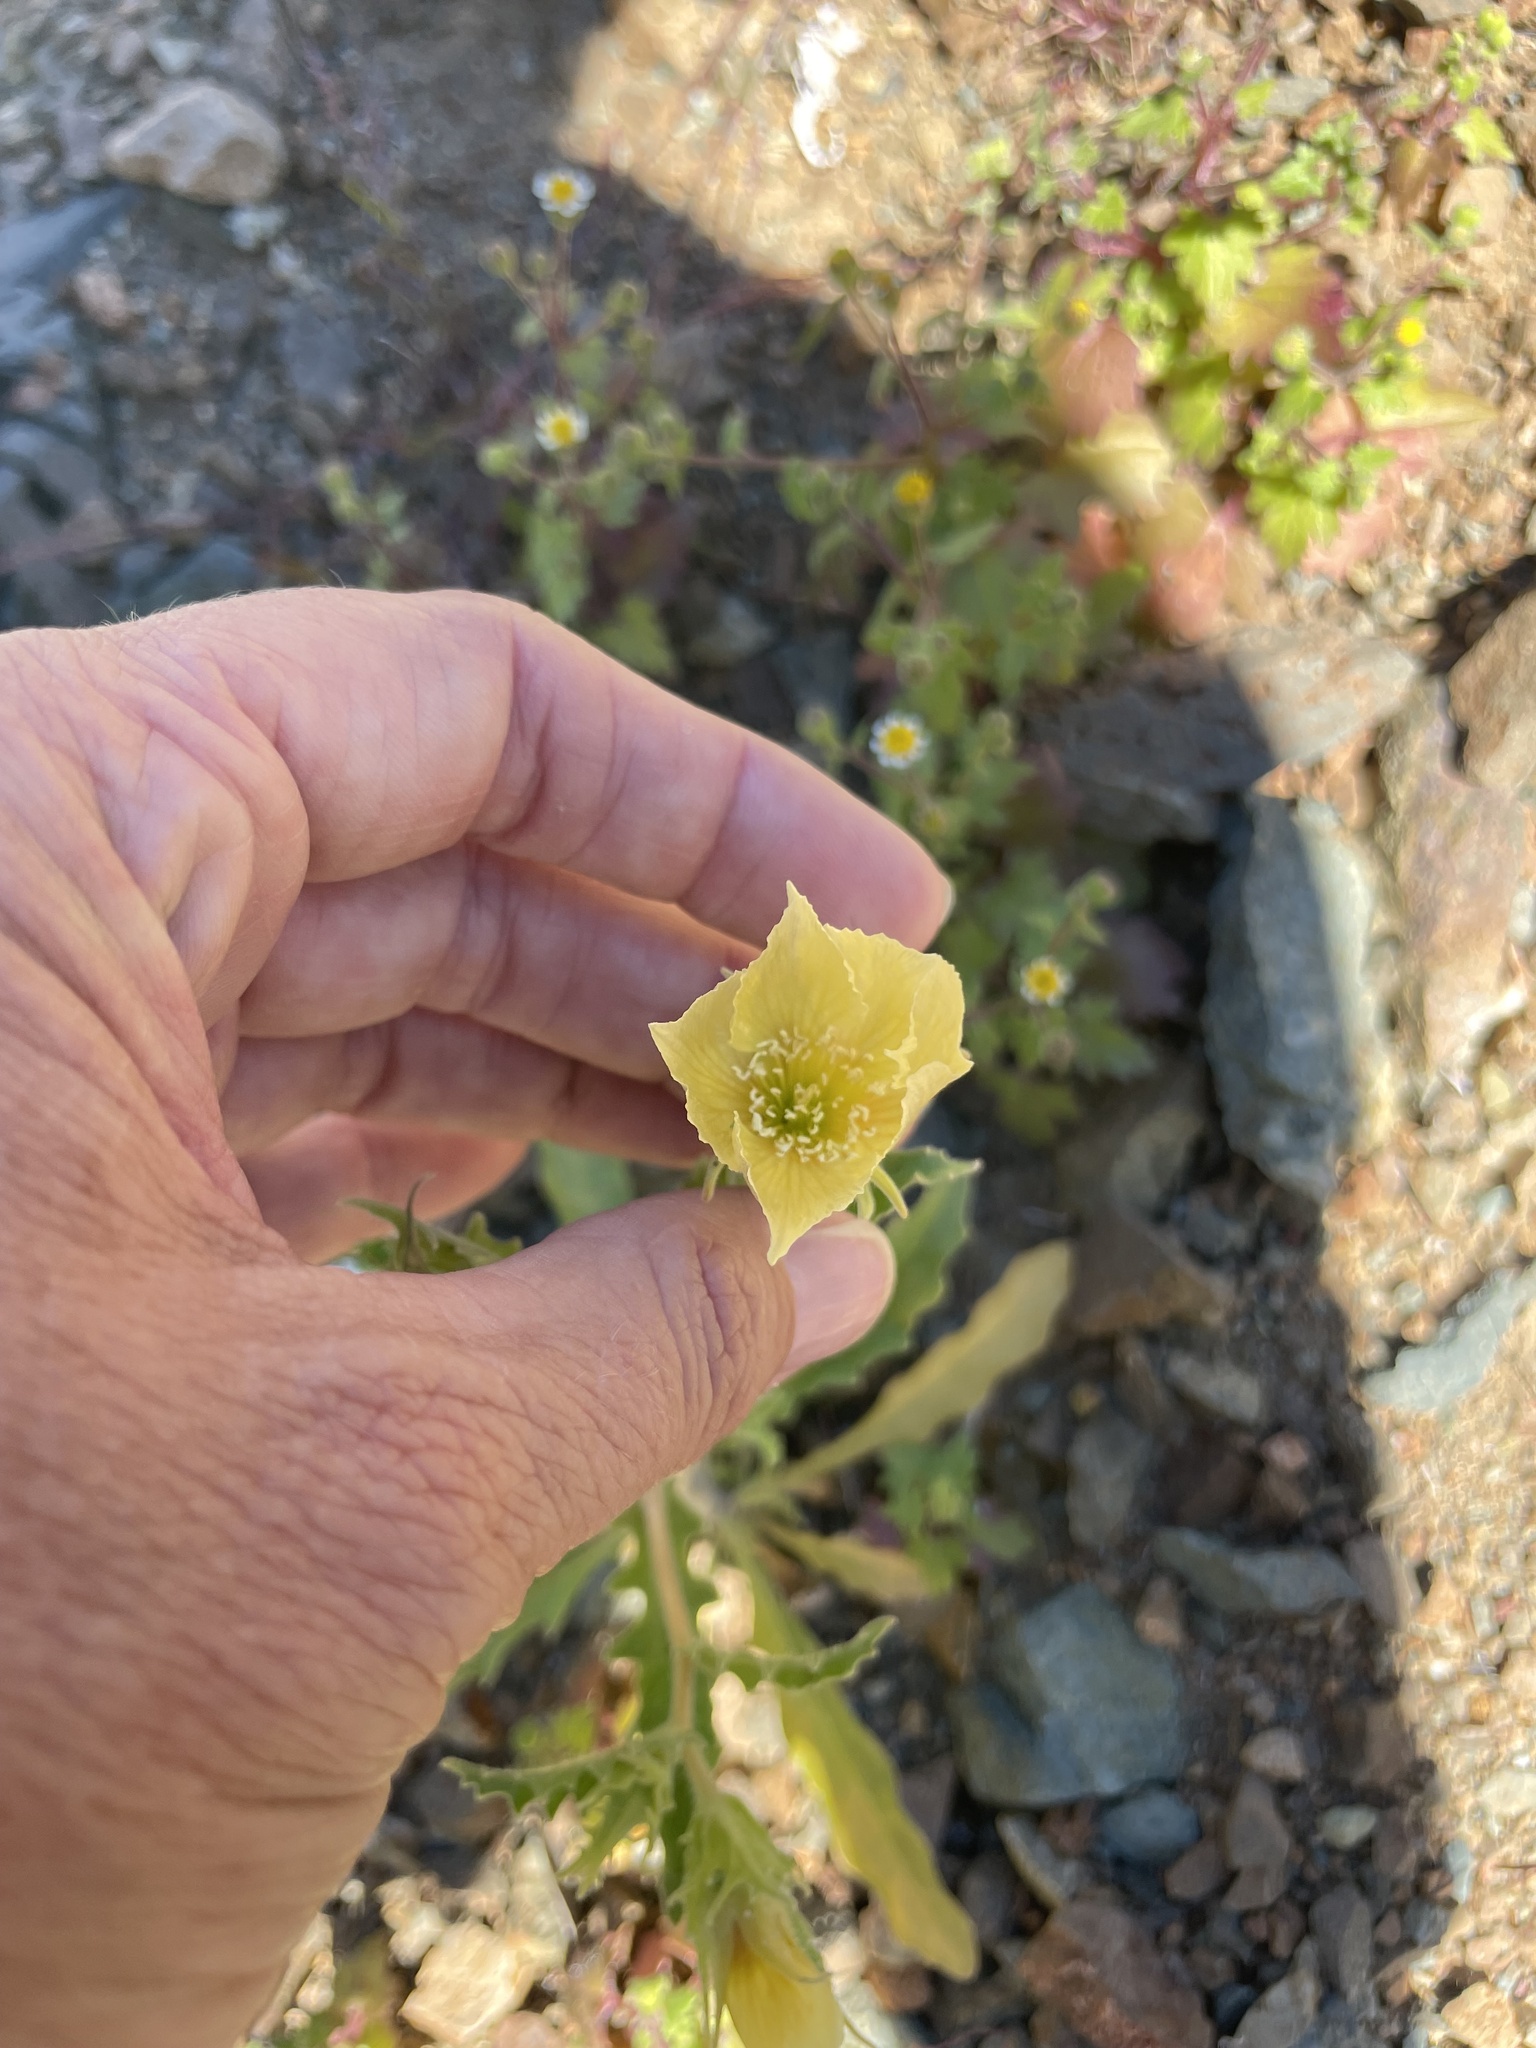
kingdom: Plantae
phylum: Tracheophyta
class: Magnoliopsida
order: Cornales
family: Loasaceae
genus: Mentzelia
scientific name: Mentzelia nesiotes
